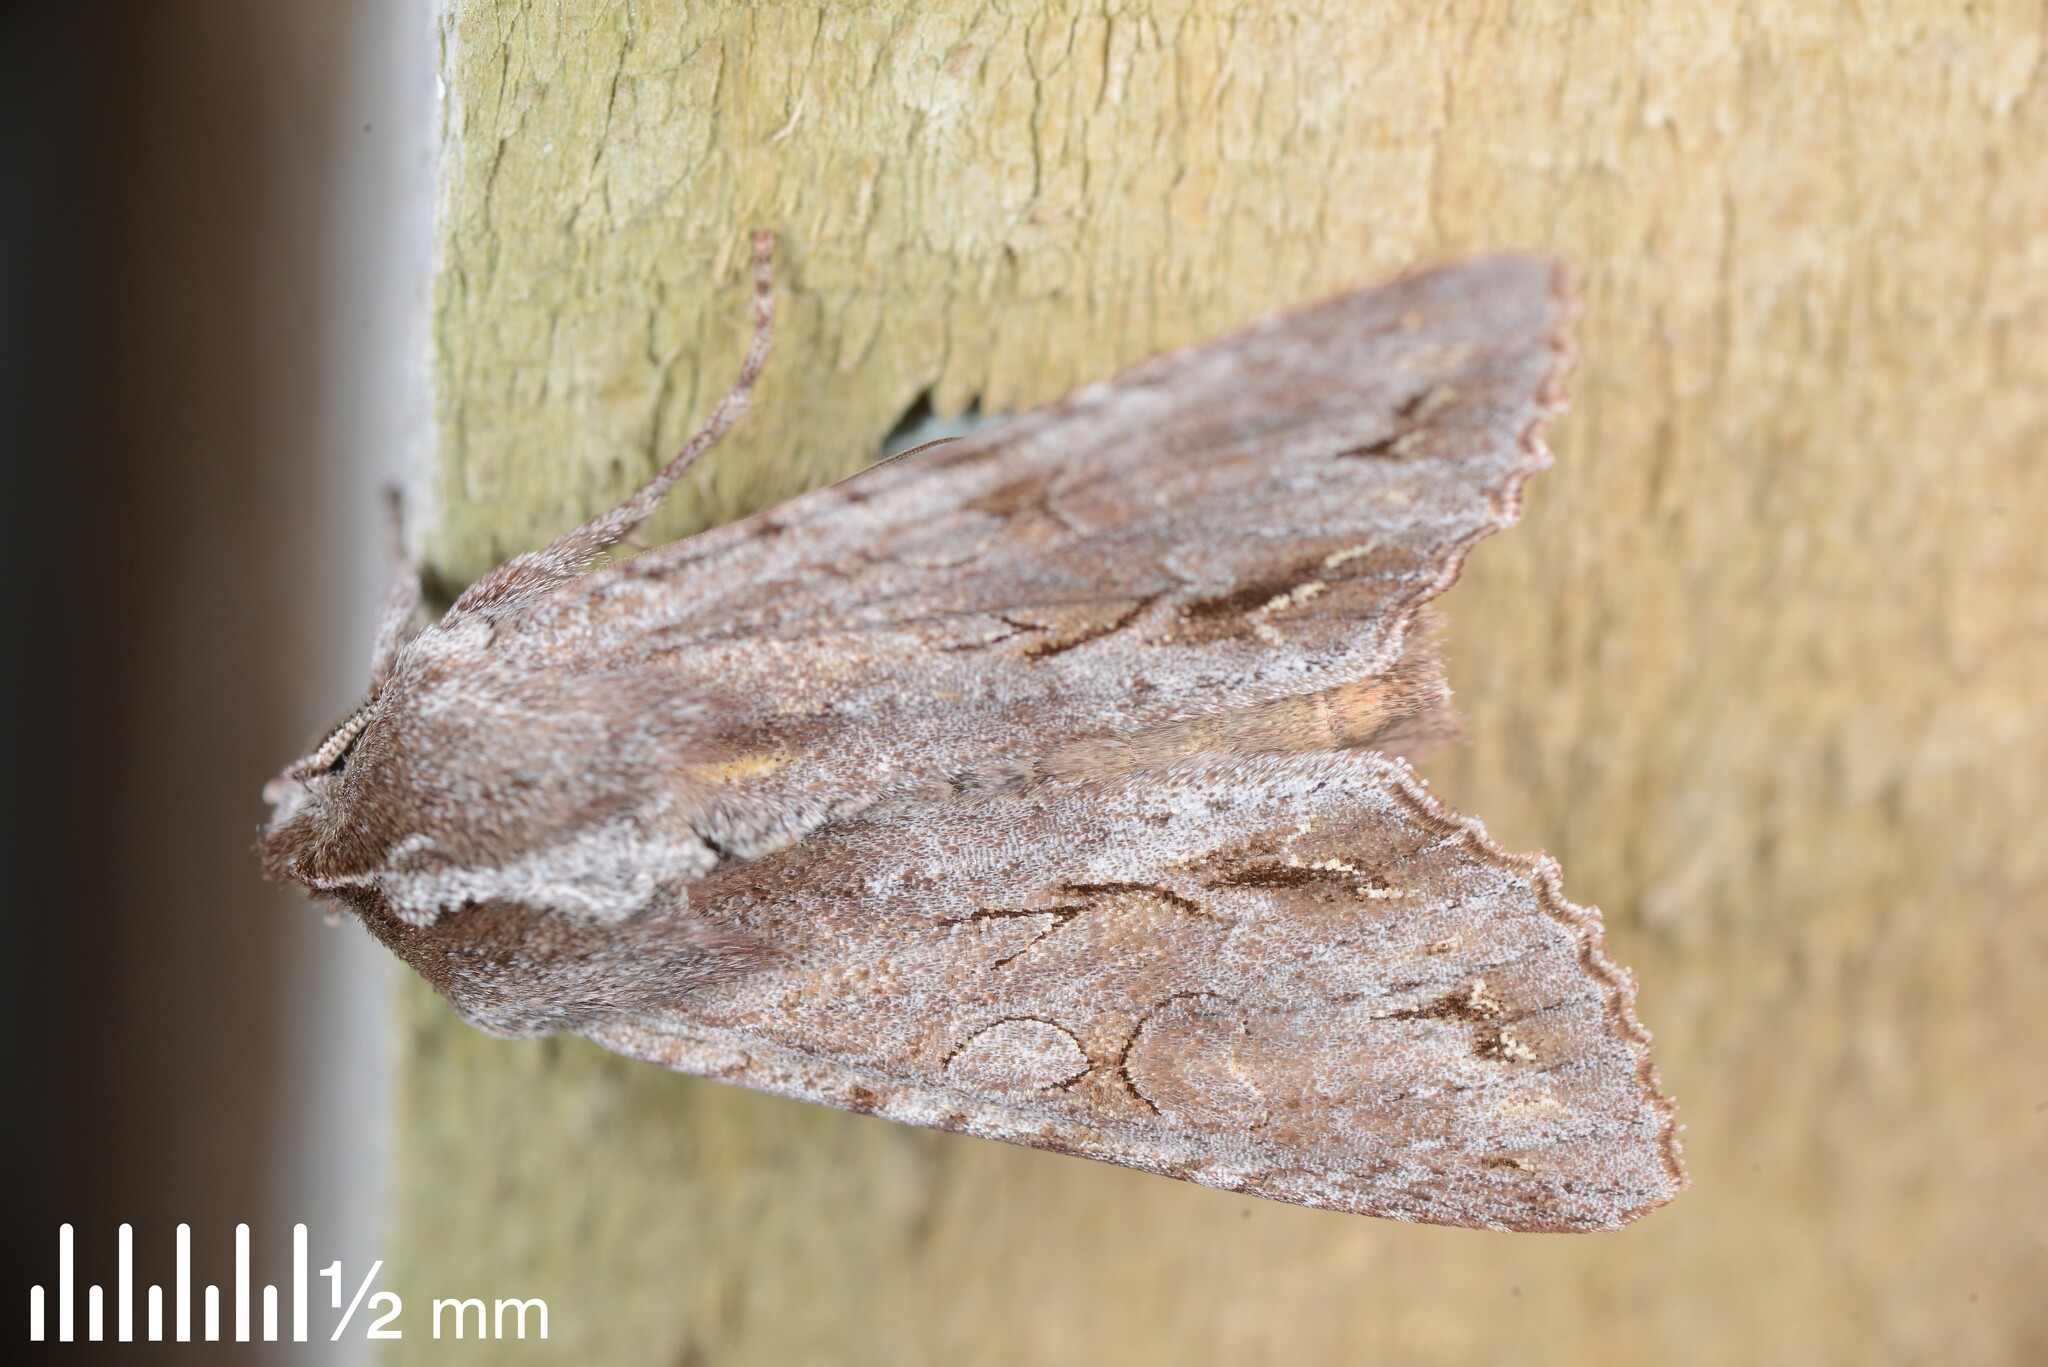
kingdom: Animalia
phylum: Arthropoda
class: Insecta
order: Lepidoptera
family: Noctuidae
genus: Ichneutica
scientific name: Ichneutica
